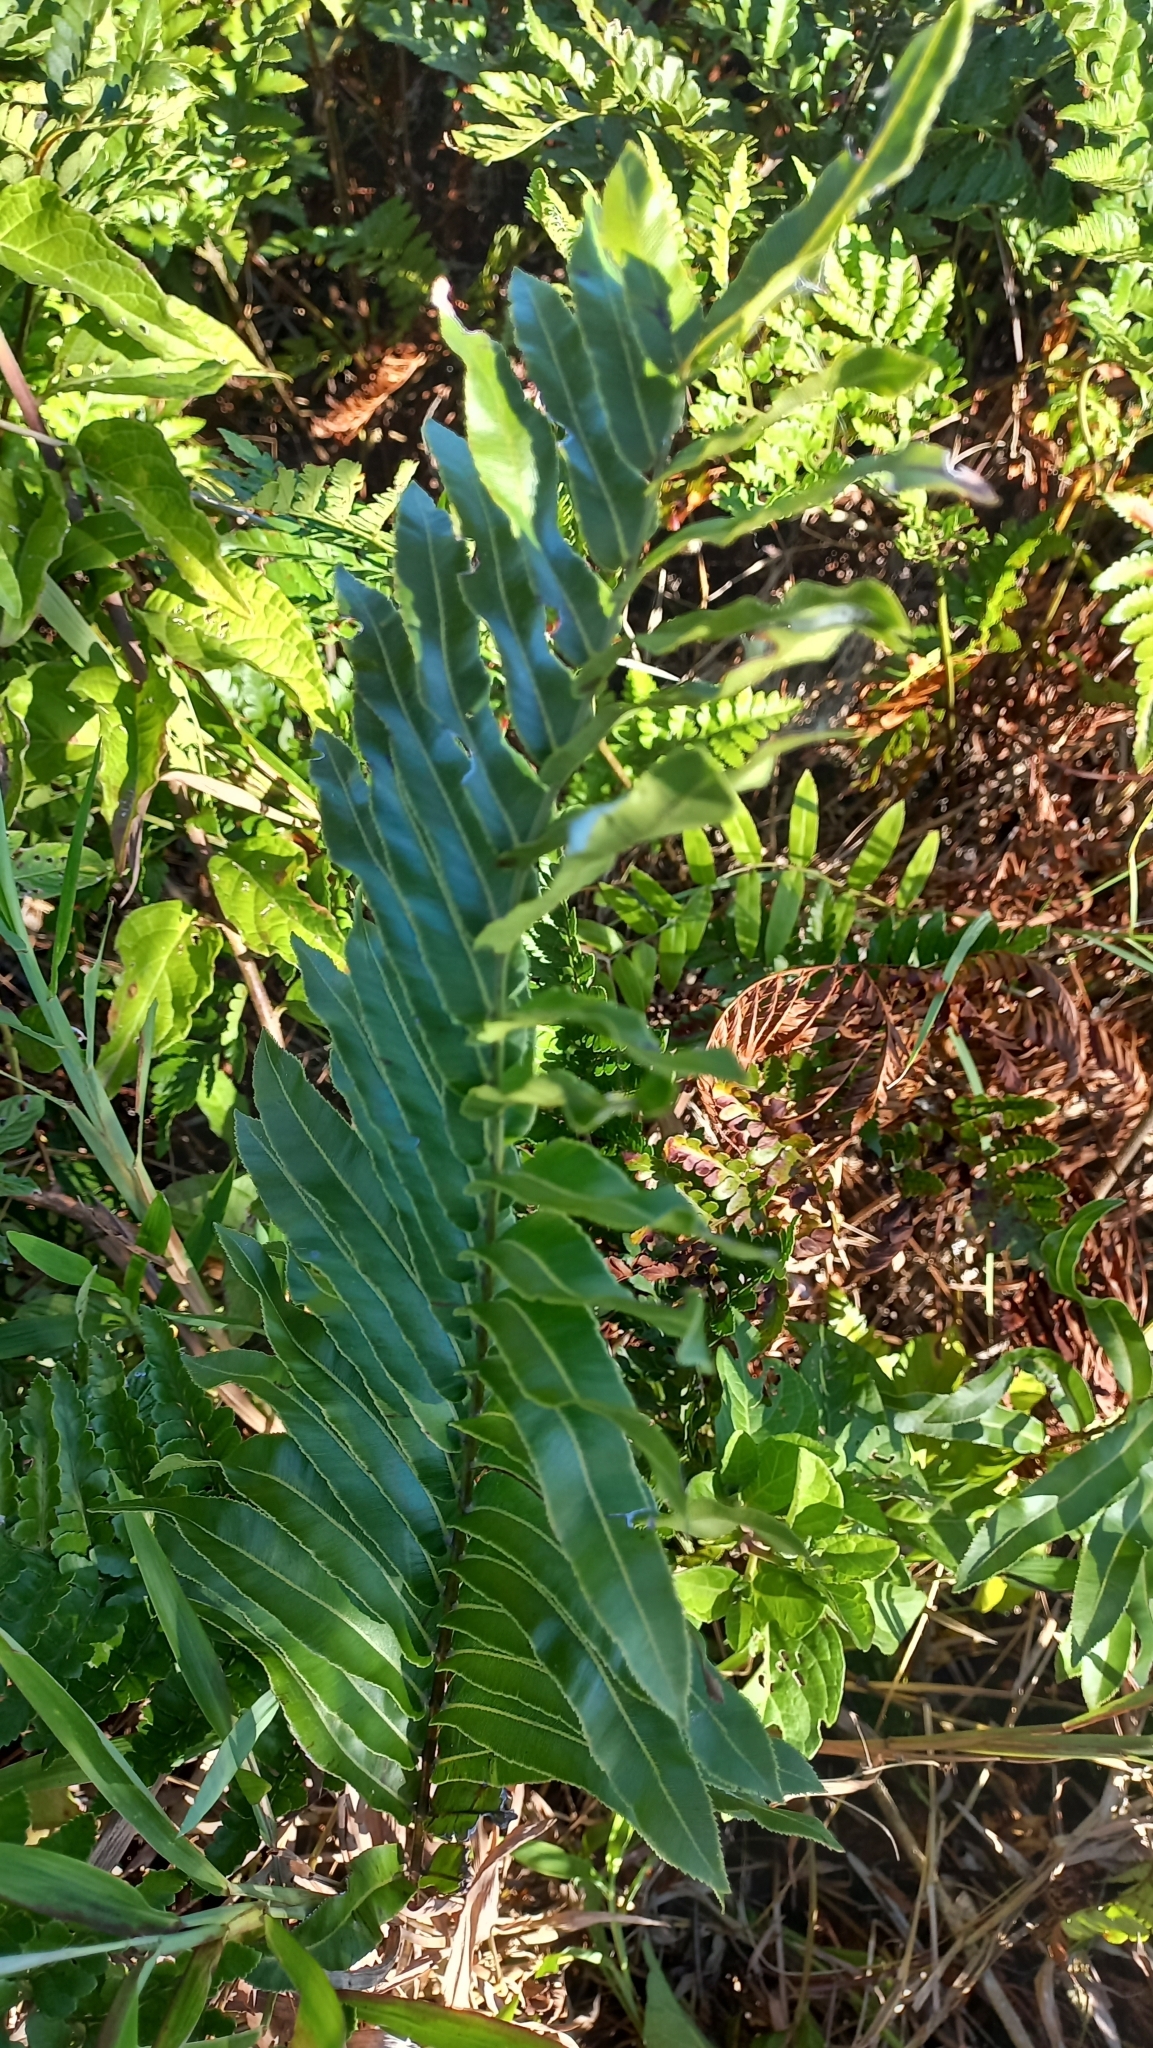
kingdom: Plantae
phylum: Tracheophyta
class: Polypodiopsida
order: Polypodiales
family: Blechnaceae
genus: Telmatoblechnum
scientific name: Telmatoblechnum serrulatum
